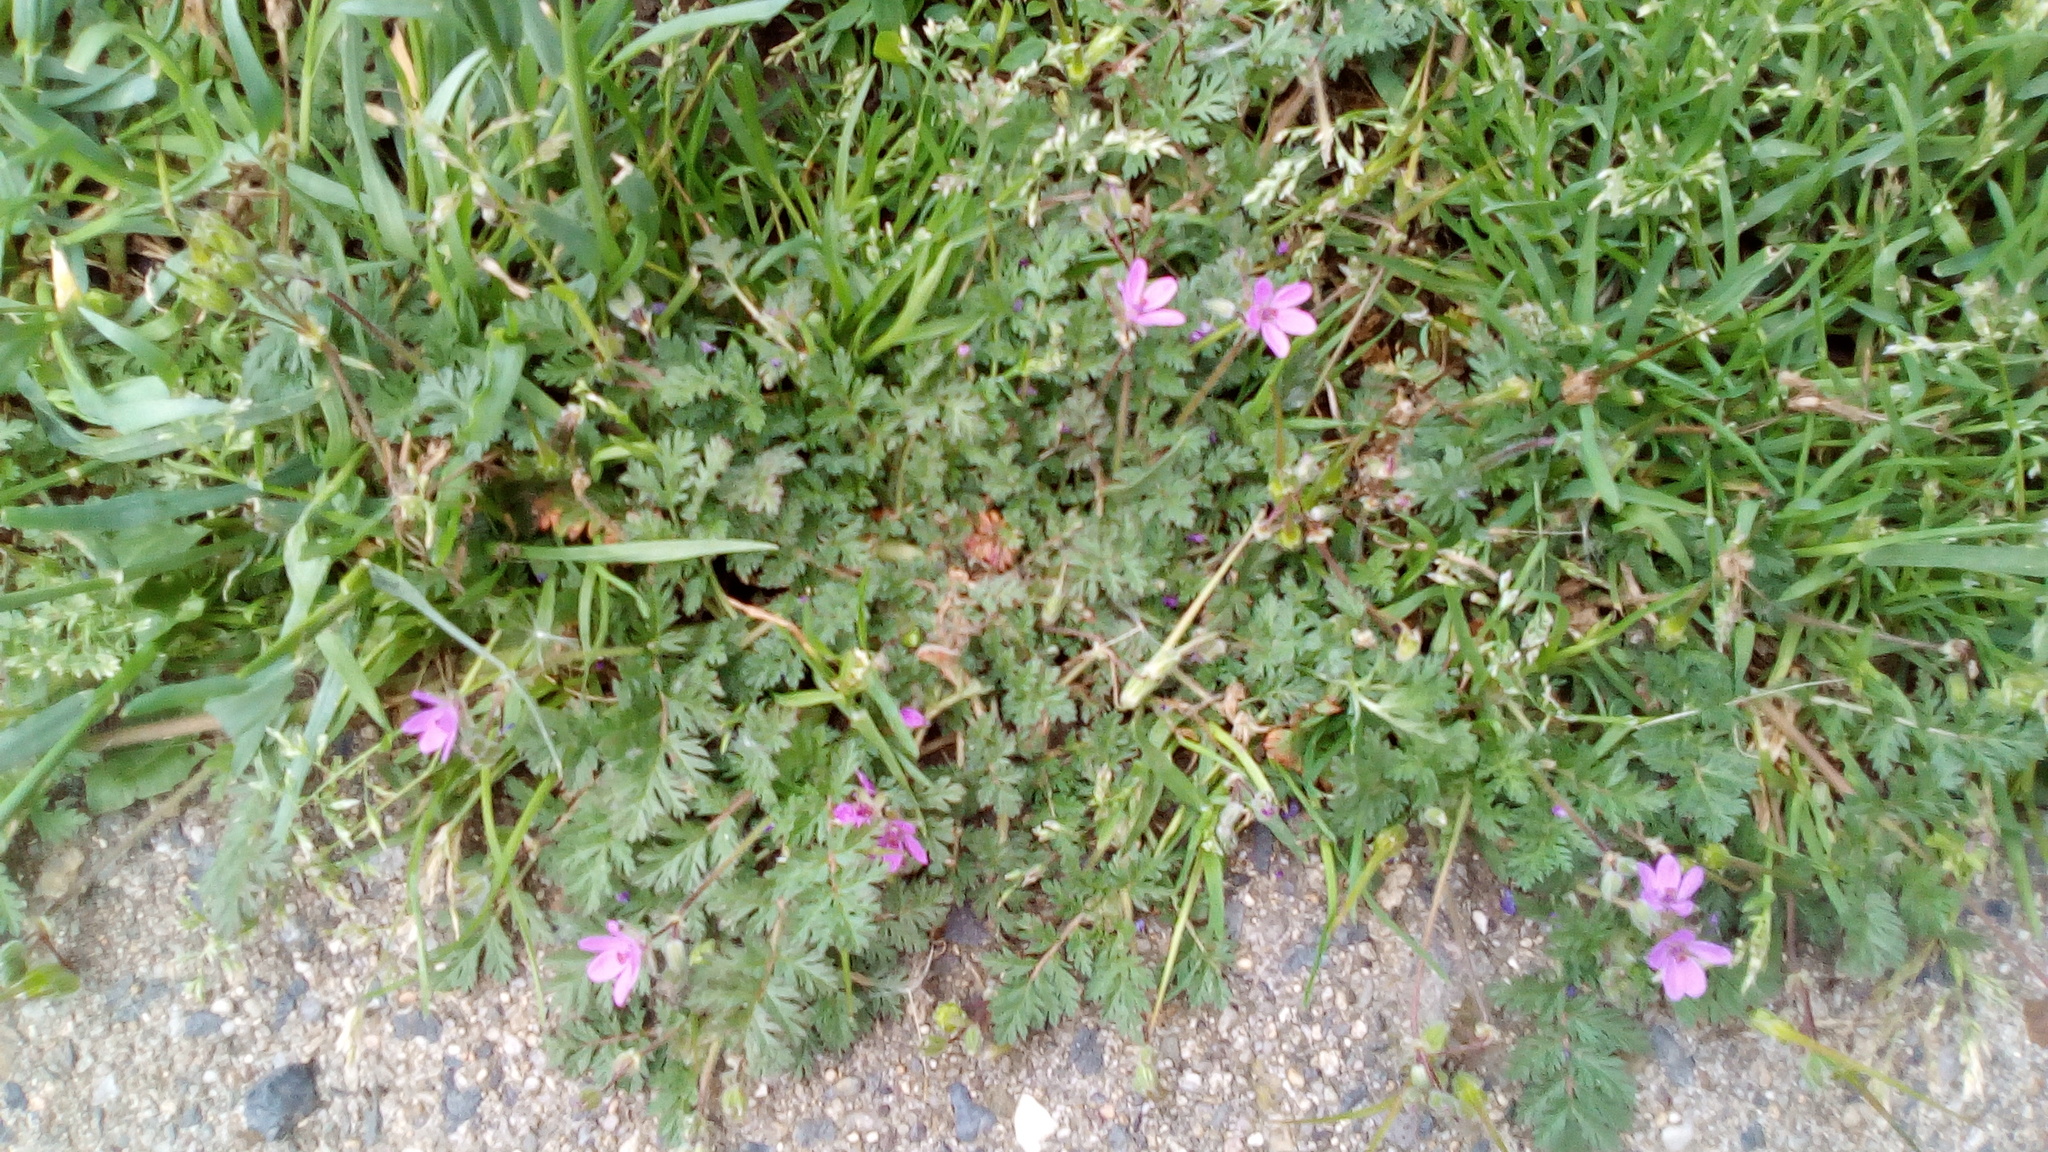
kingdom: Plantae
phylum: Tracheophyta
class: Magnoliopsida
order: Geraniales
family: Geraniaceae
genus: Erodium
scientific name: Erodium cicutarium
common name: Common stork's-bill
